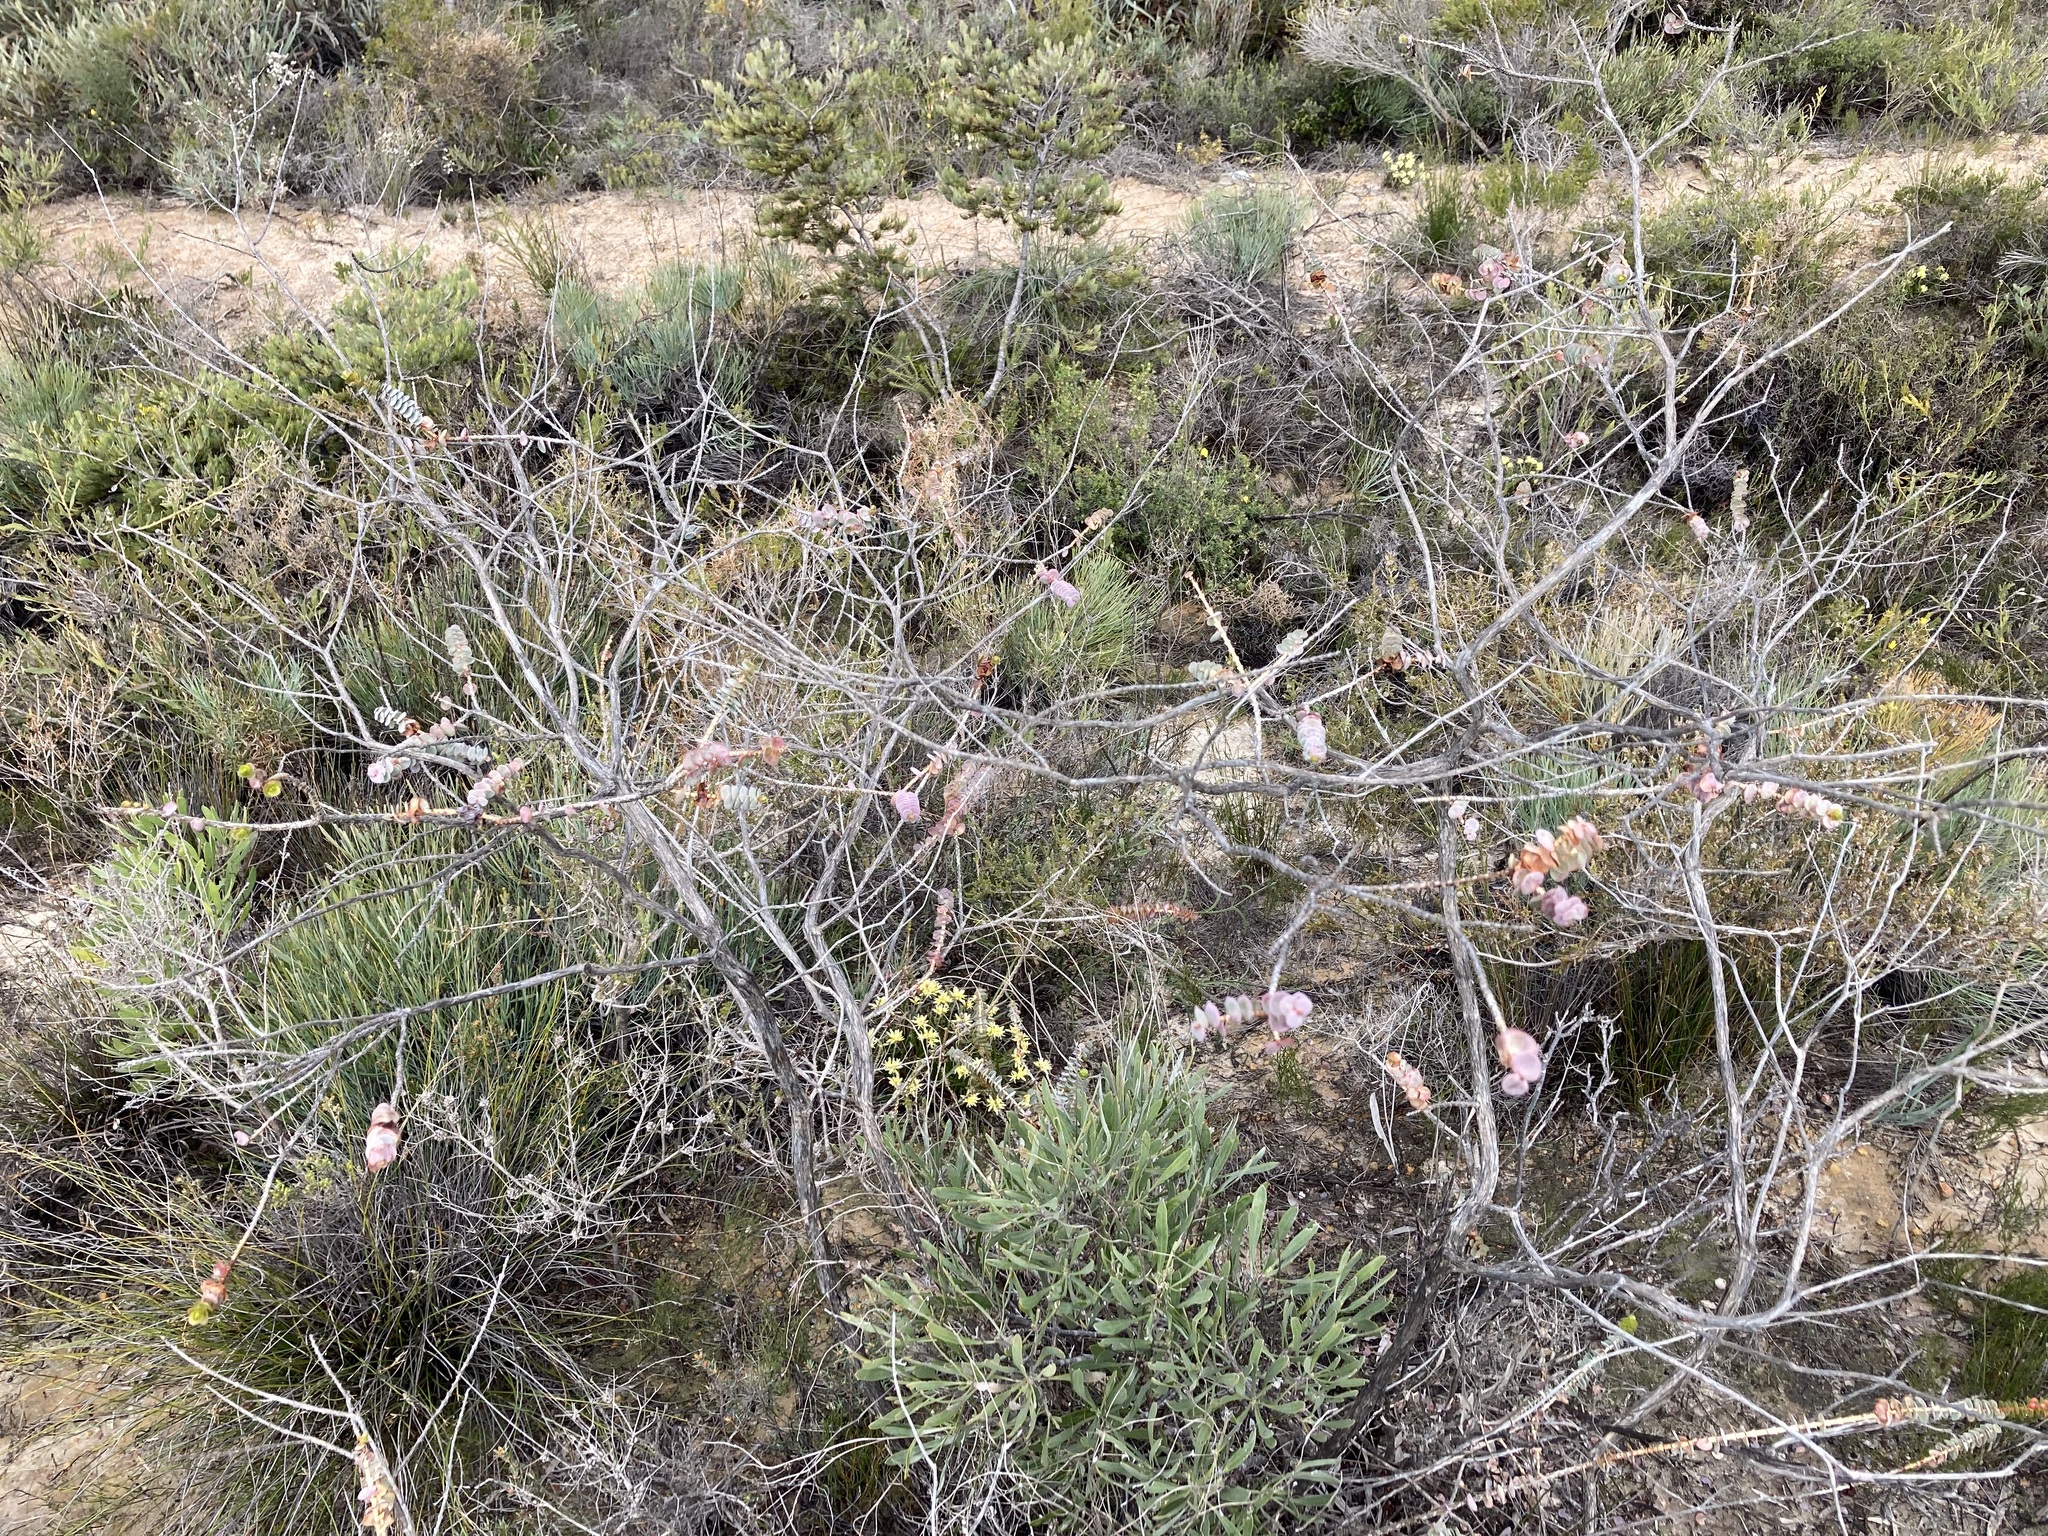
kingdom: Plantae
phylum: Tracheophyta
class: Magnoliopsida
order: Myrtales
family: Myrtaceae
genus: Verticordia
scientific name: Verticordia grandis
